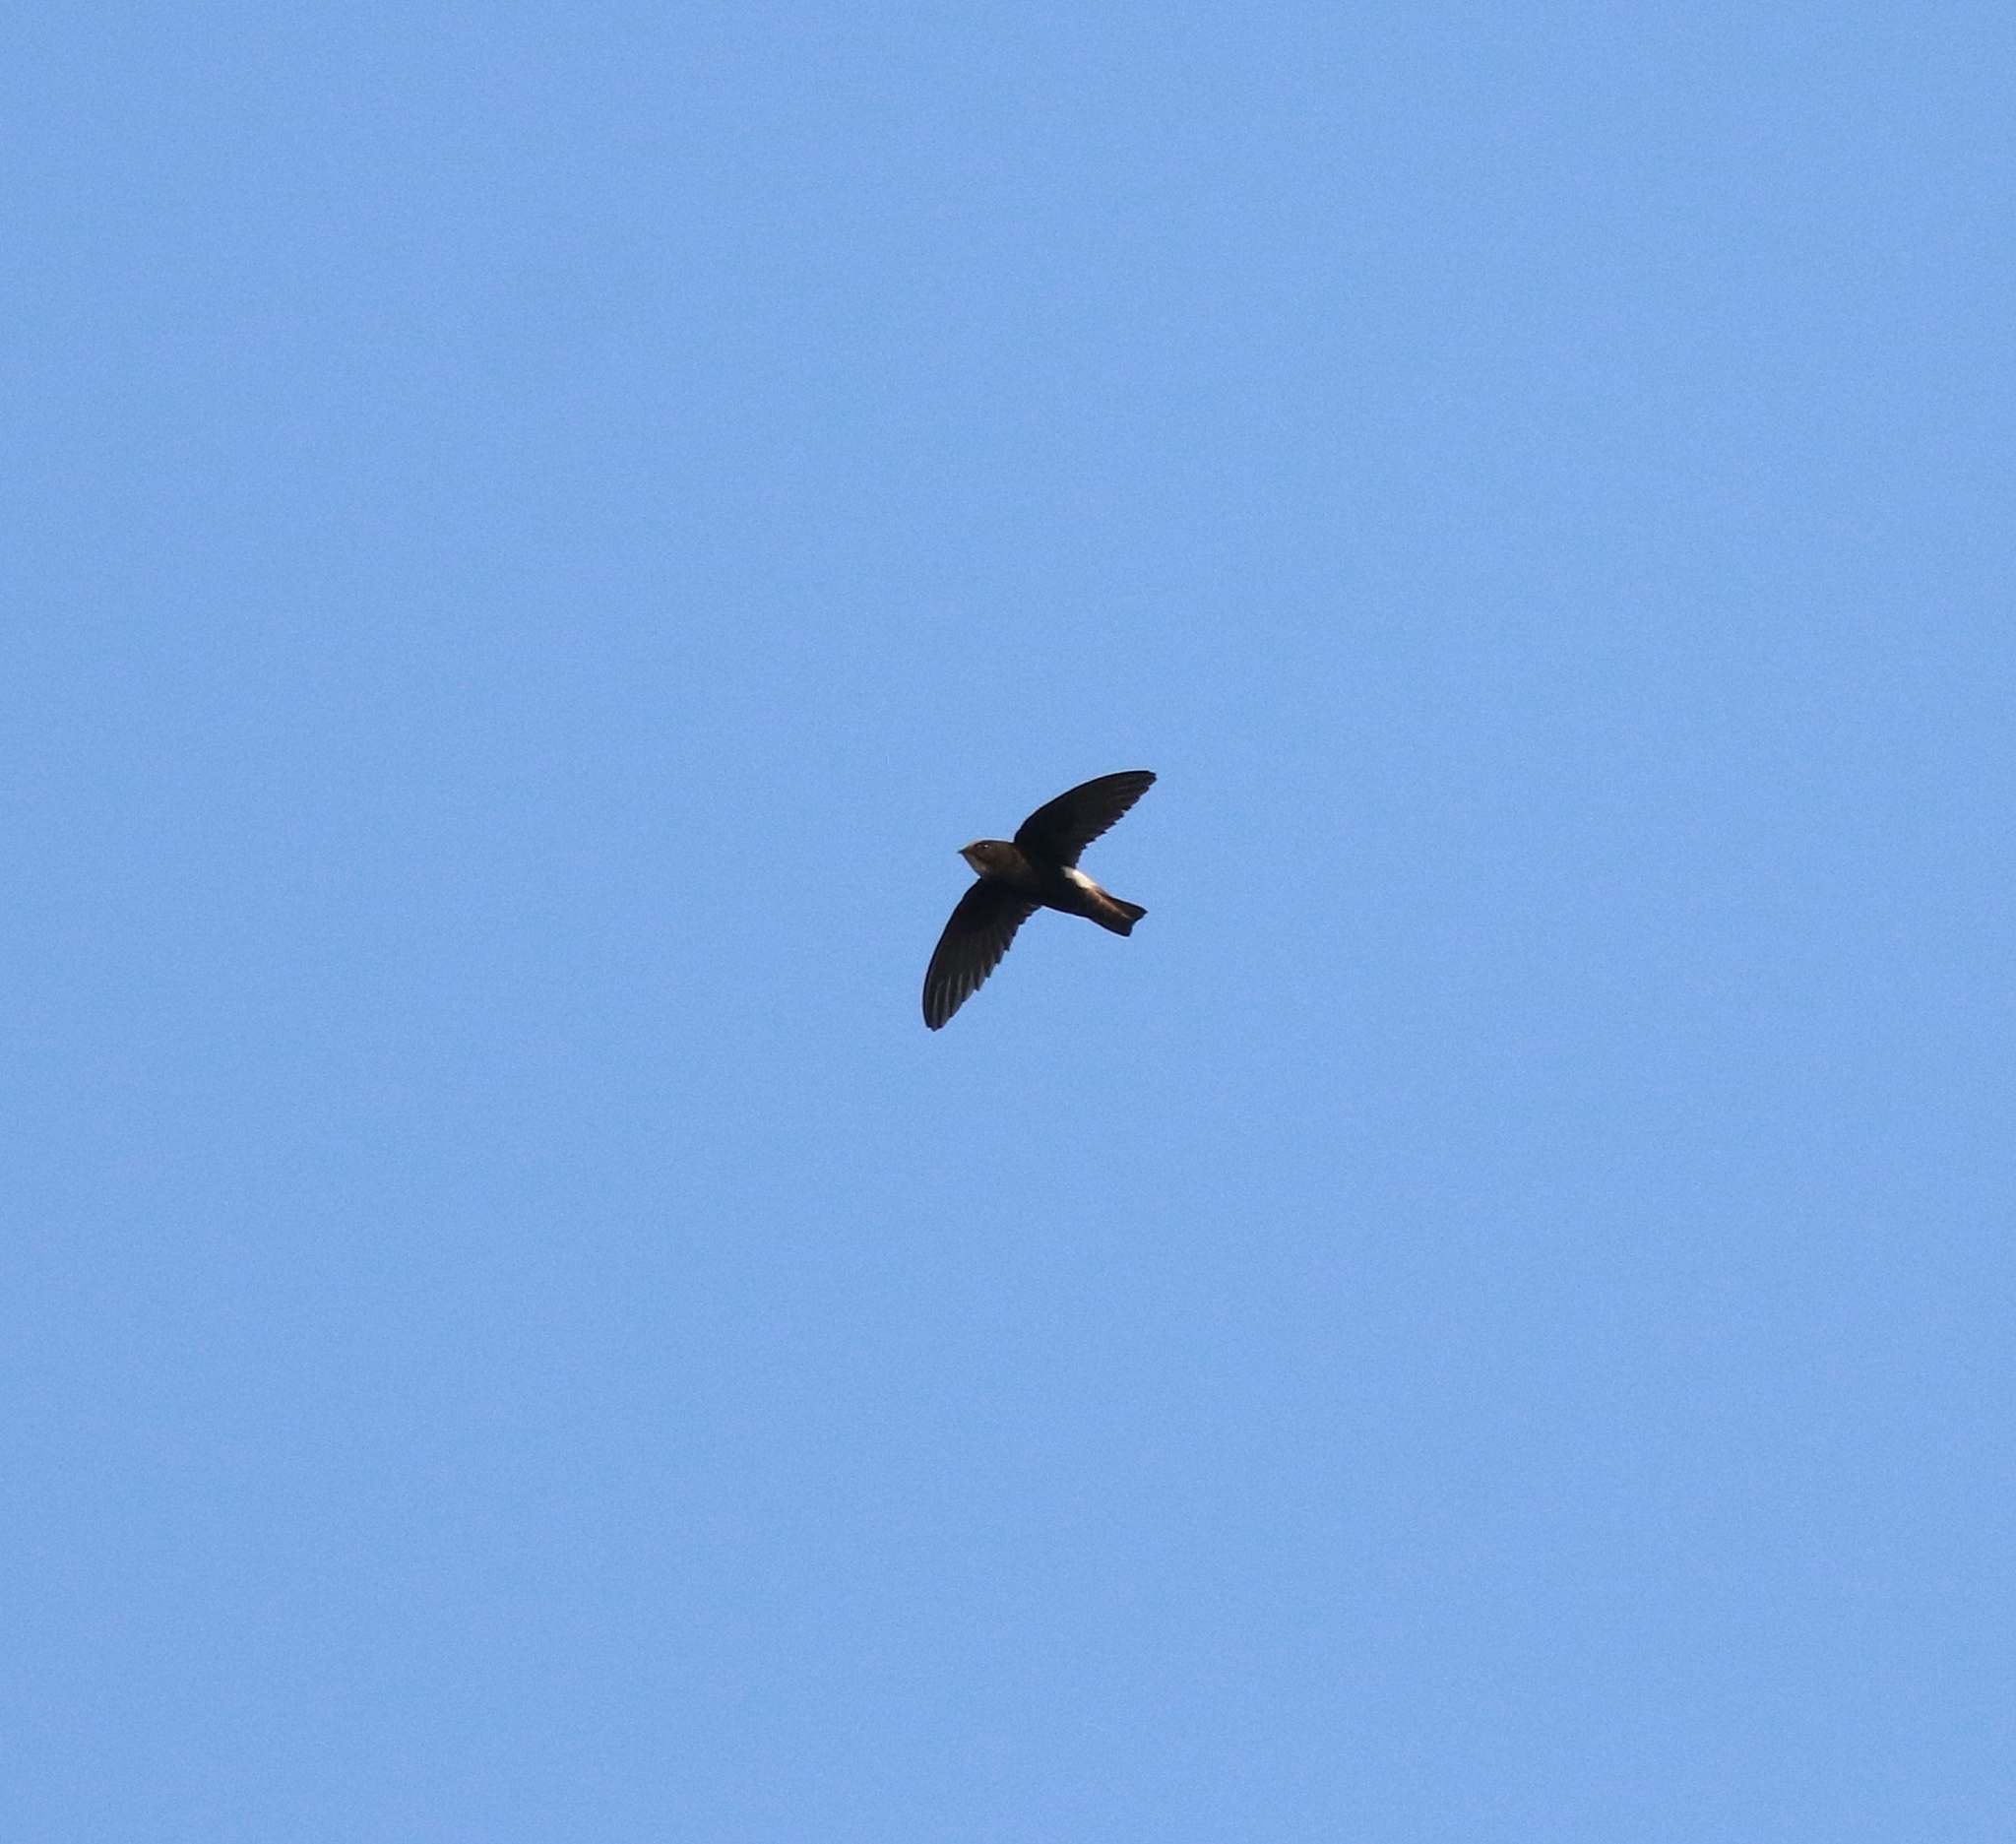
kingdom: Animalia
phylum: Chordata
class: Aves
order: Apodiformes
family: Apodidae
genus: Apus
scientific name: Apus affinis
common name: Little swift
